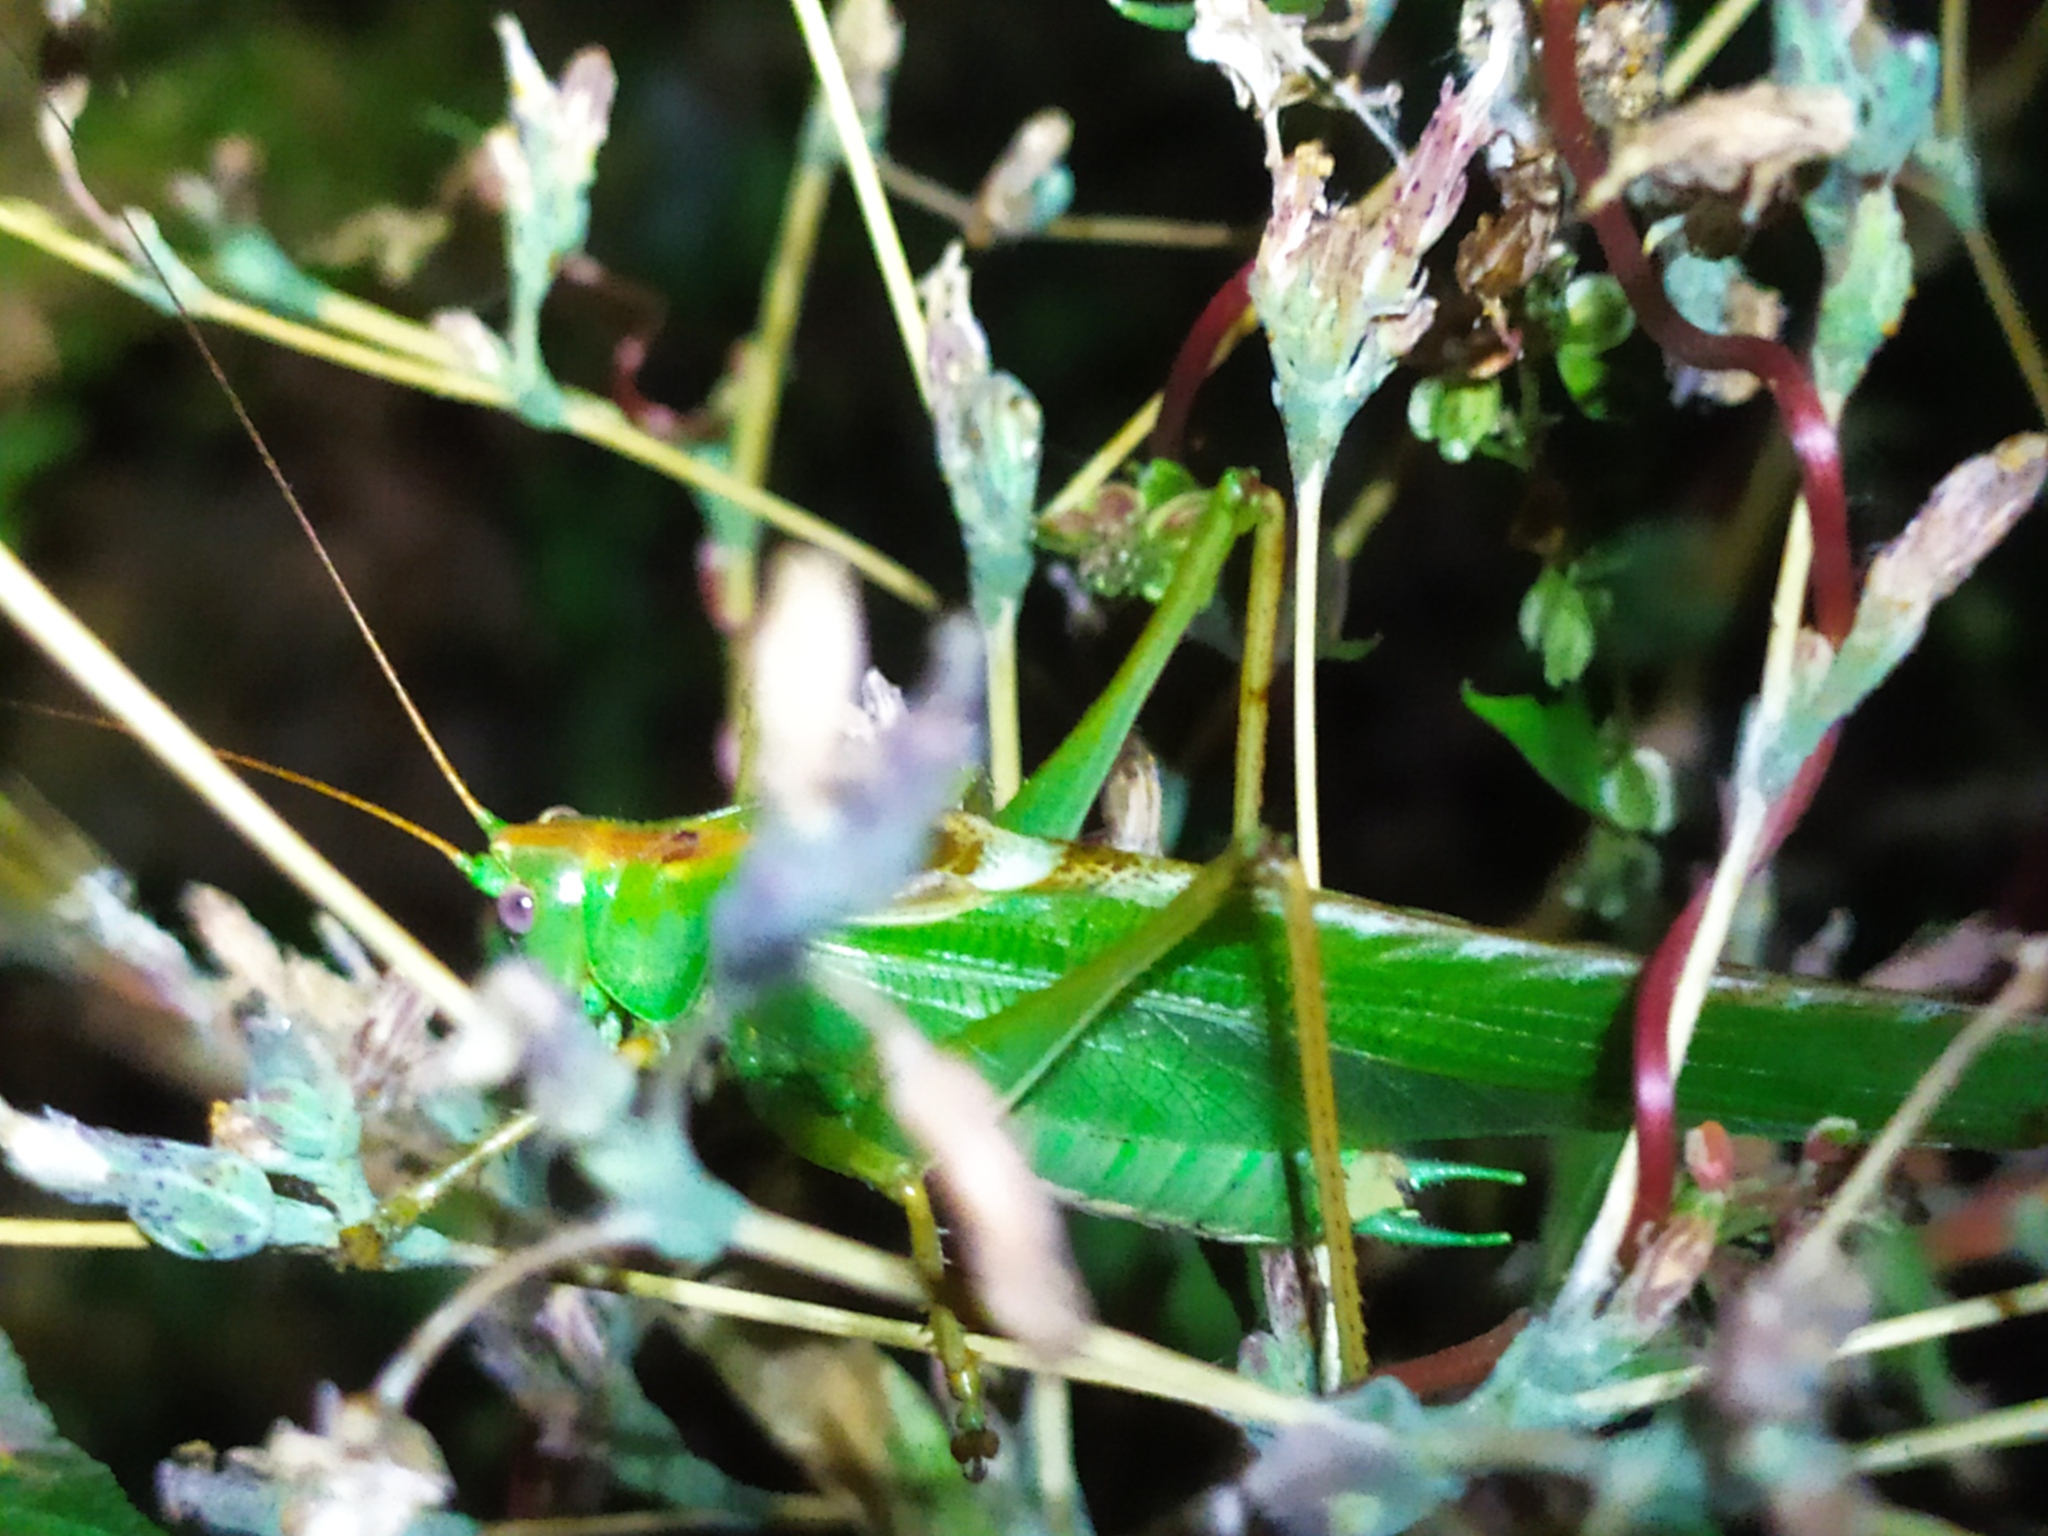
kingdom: Animalia
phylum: Arthropoda
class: Insecta
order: Orthoptera
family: Tettigoniidae
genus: Tettigonia
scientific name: Tettigonia viridissima
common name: Great green bush-cricket
